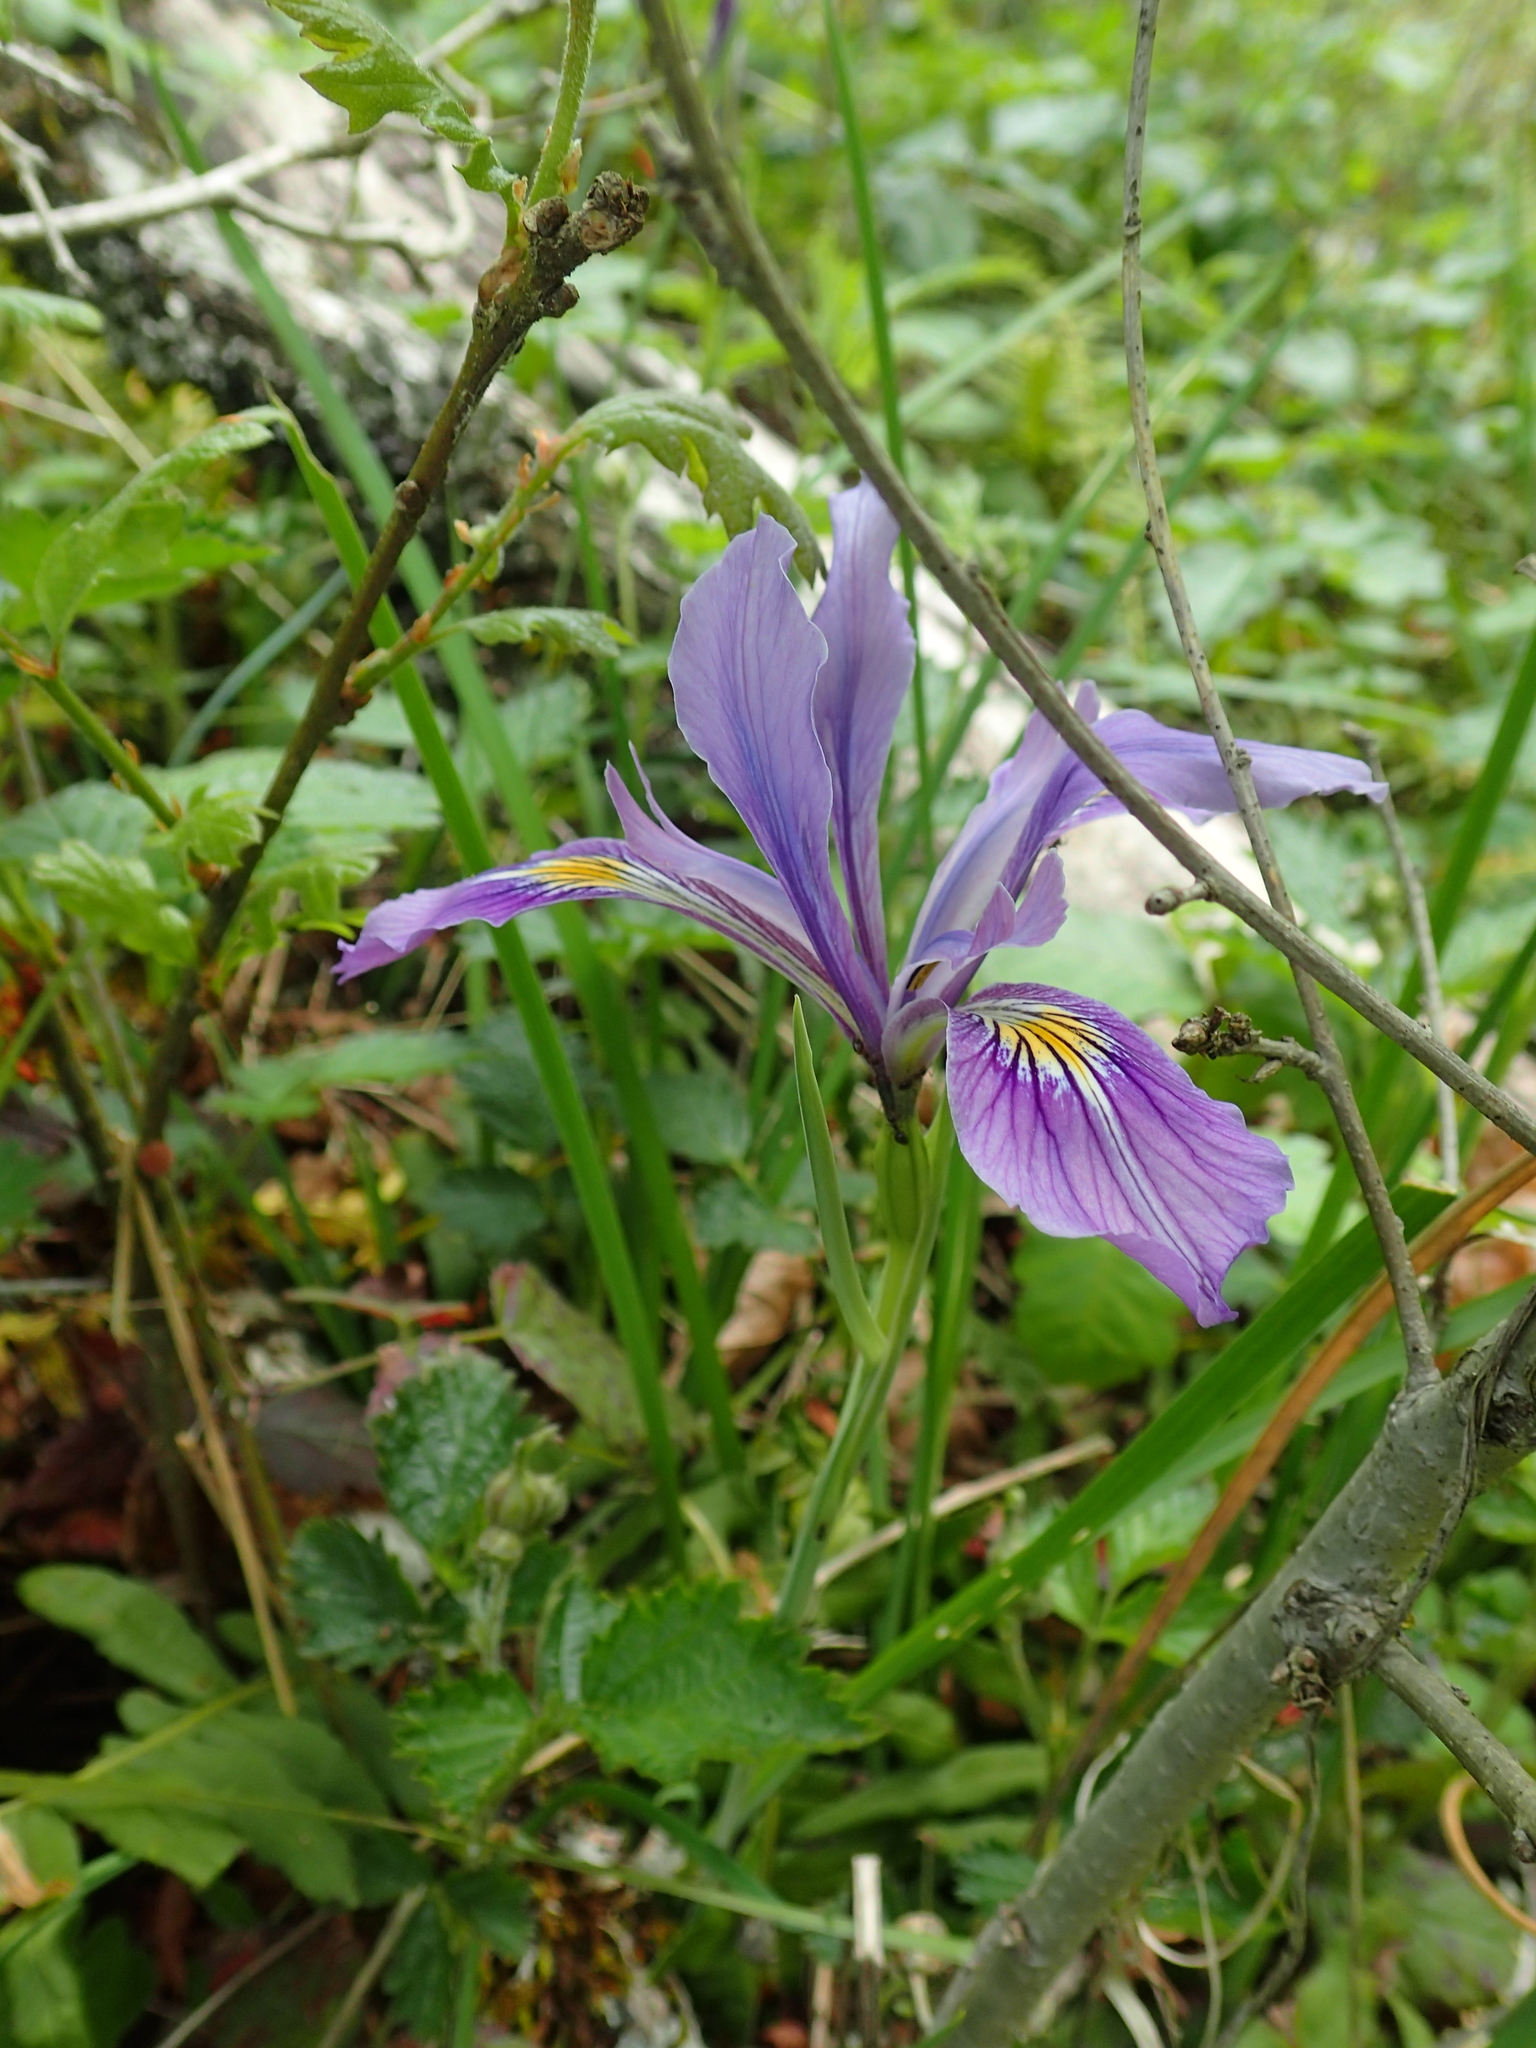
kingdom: Plantae
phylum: Tracheophyta
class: Liliopsida
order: Asparagales
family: Iridaceae
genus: Iris
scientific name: Iris tenax
